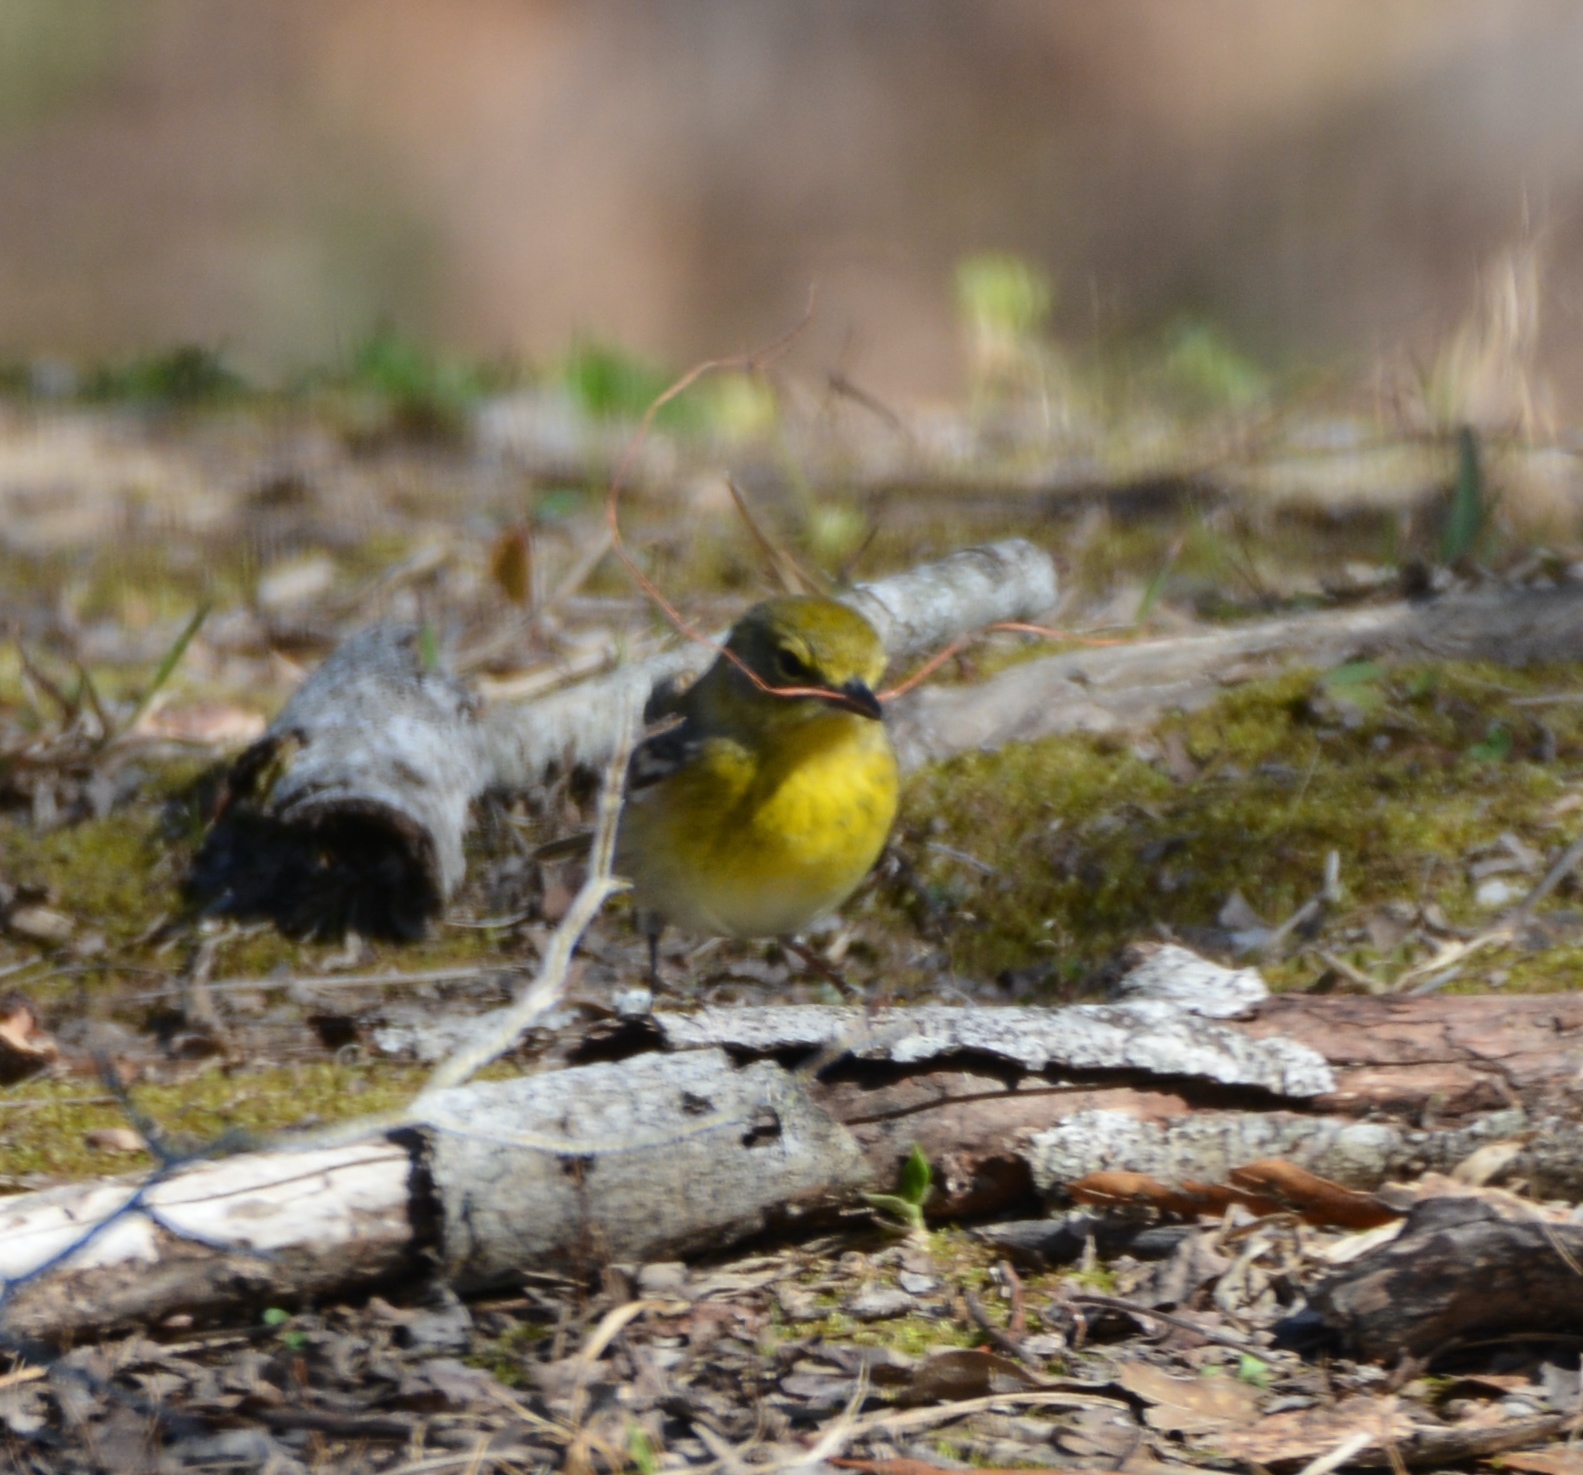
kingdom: Animalia
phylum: Chordata
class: Aves
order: Passeriformes
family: Parulidae
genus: Setophaga
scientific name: Setophaga pinus
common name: Pine warbler
